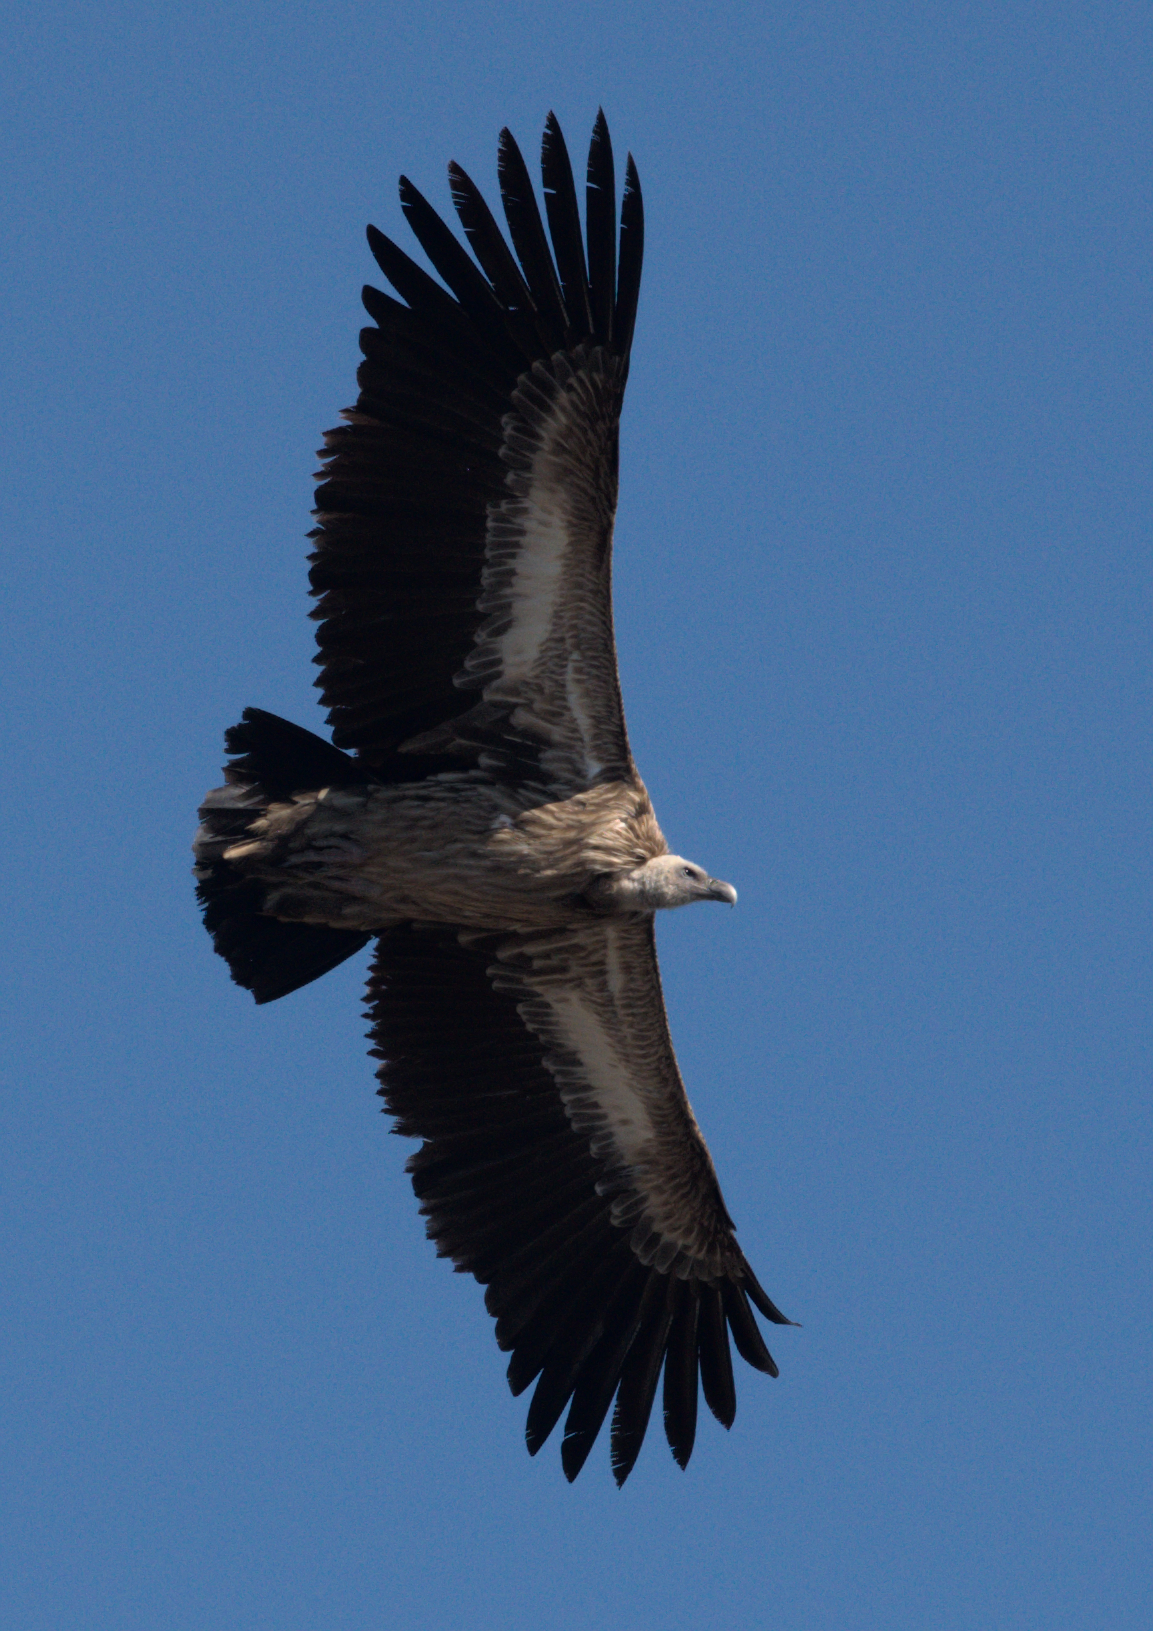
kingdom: Animalia
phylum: Chordata
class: Aves
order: Accipitriformes
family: Accipitridae
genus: Gyps
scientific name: Gyps himalayensis
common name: Himalayan griffon
